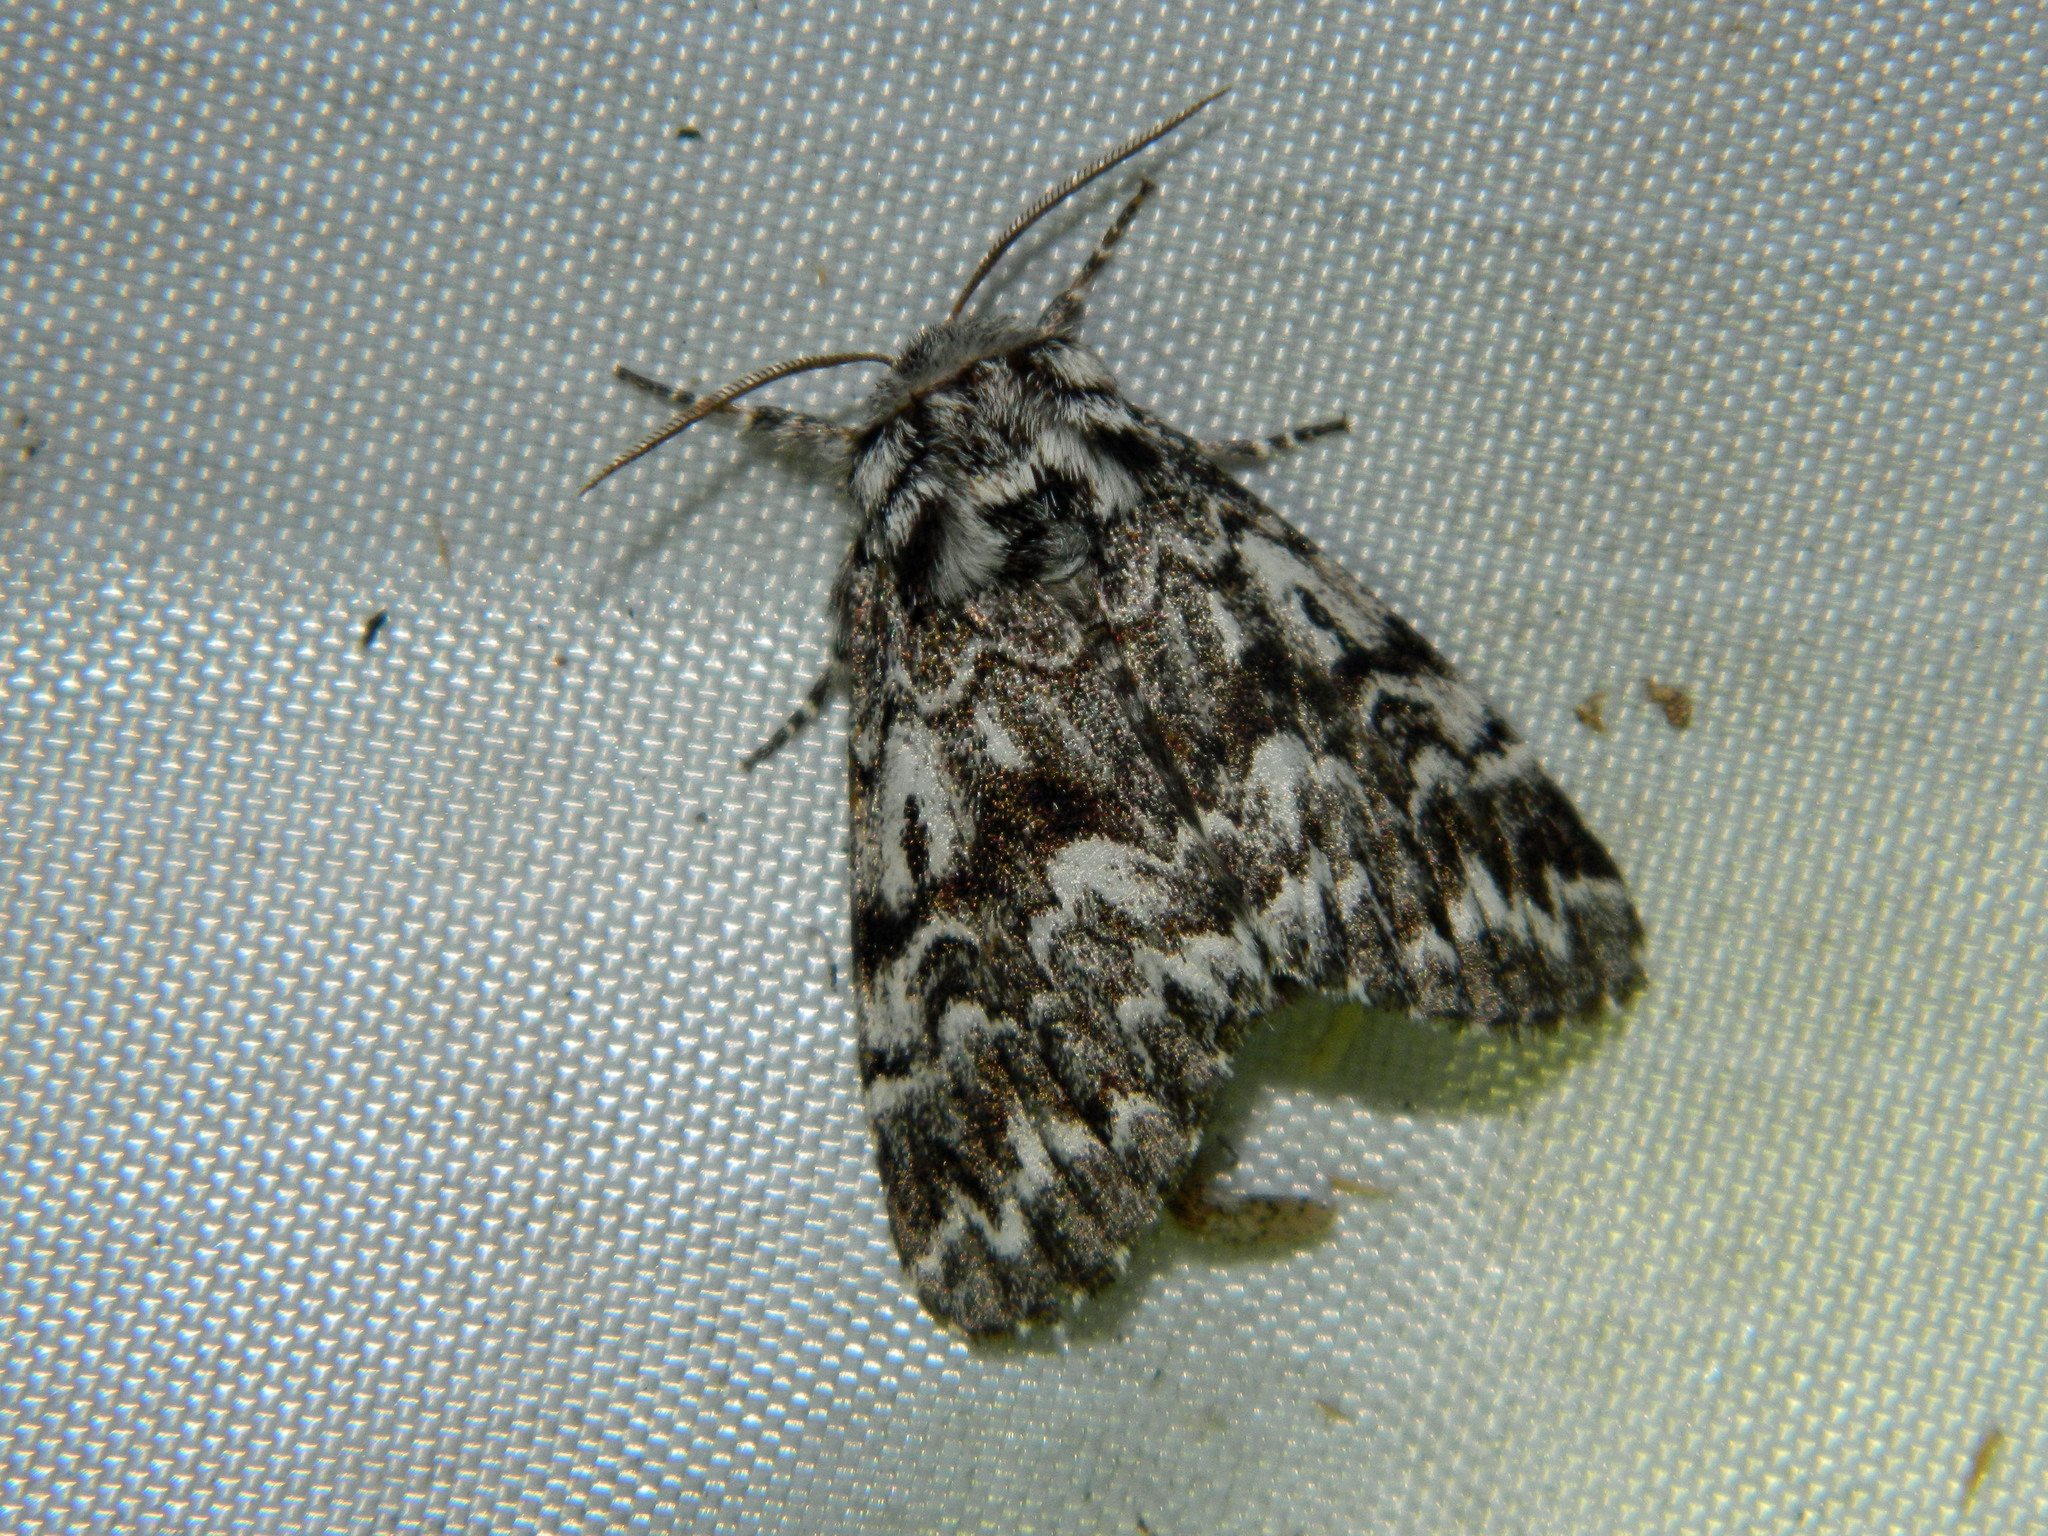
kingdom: Animalia
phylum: Arthropoda
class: Insecta
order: Lepidoptera
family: Noctuidae
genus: Panthea
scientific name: Panthea acronyctoides
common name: Black zigzag moth
